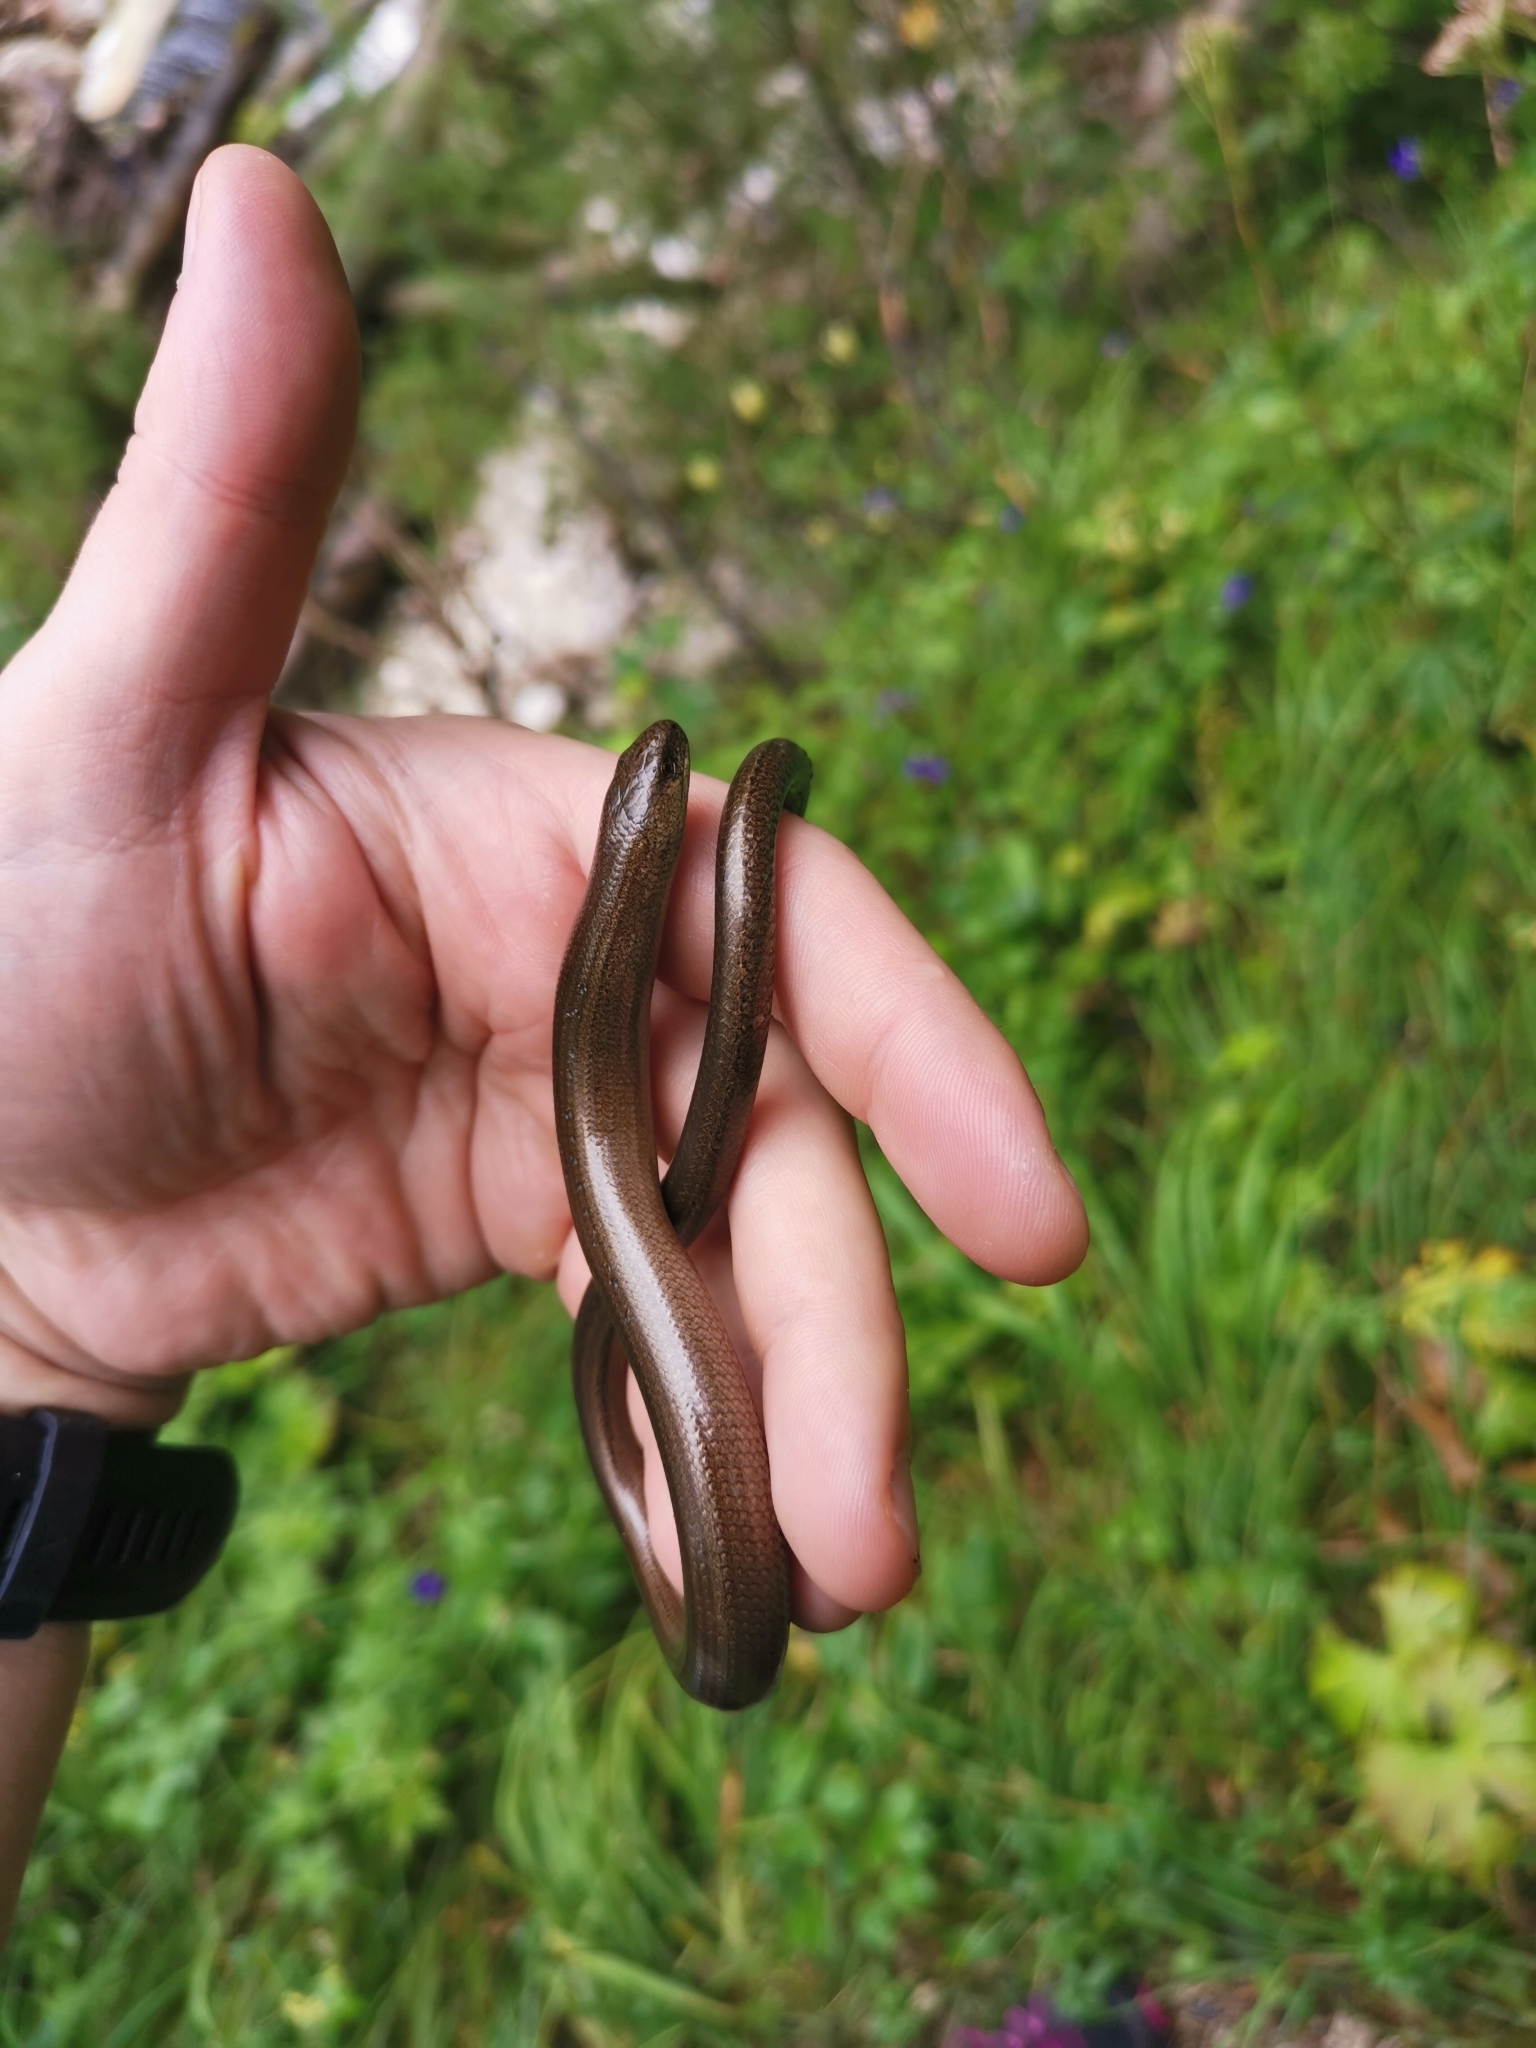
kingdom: Animalia
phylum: Chordata
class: Squamata
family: Anguidae
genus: Anguis
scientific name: Anguis fragilis
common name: Slow worm
